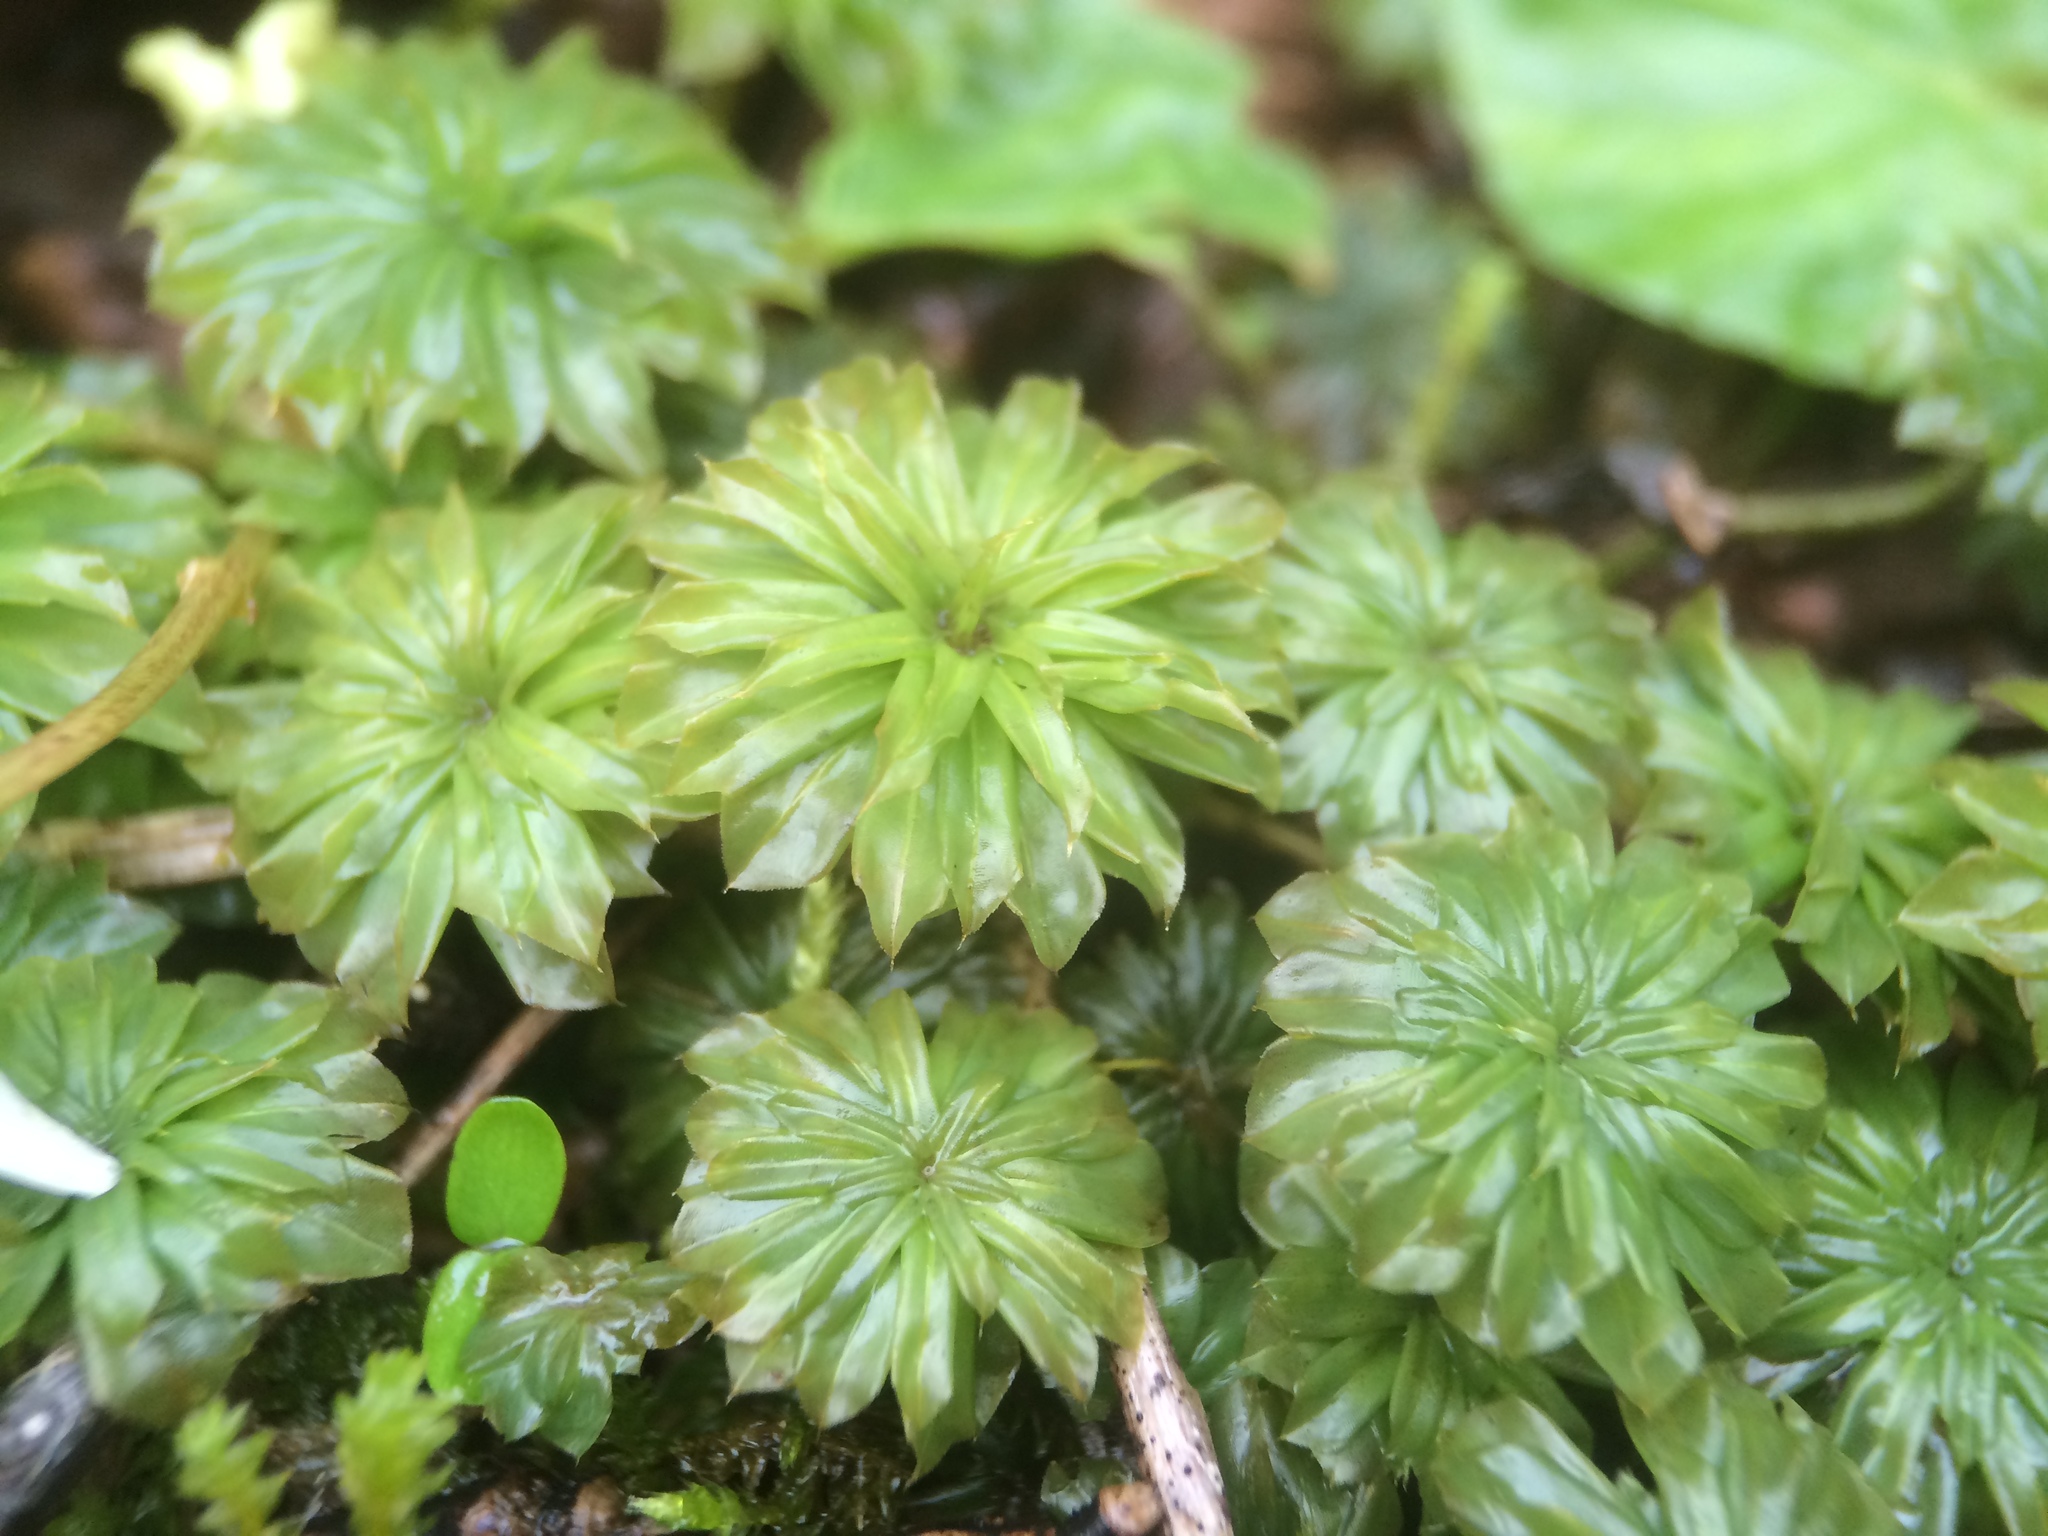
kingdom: Plantae
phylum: Bryophyta
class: Bryopsida
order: Bryales
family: Bryaceae
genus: Rhodobryum
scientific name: Rhodobryum ontariense
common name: Ontario rhodobryum moss
